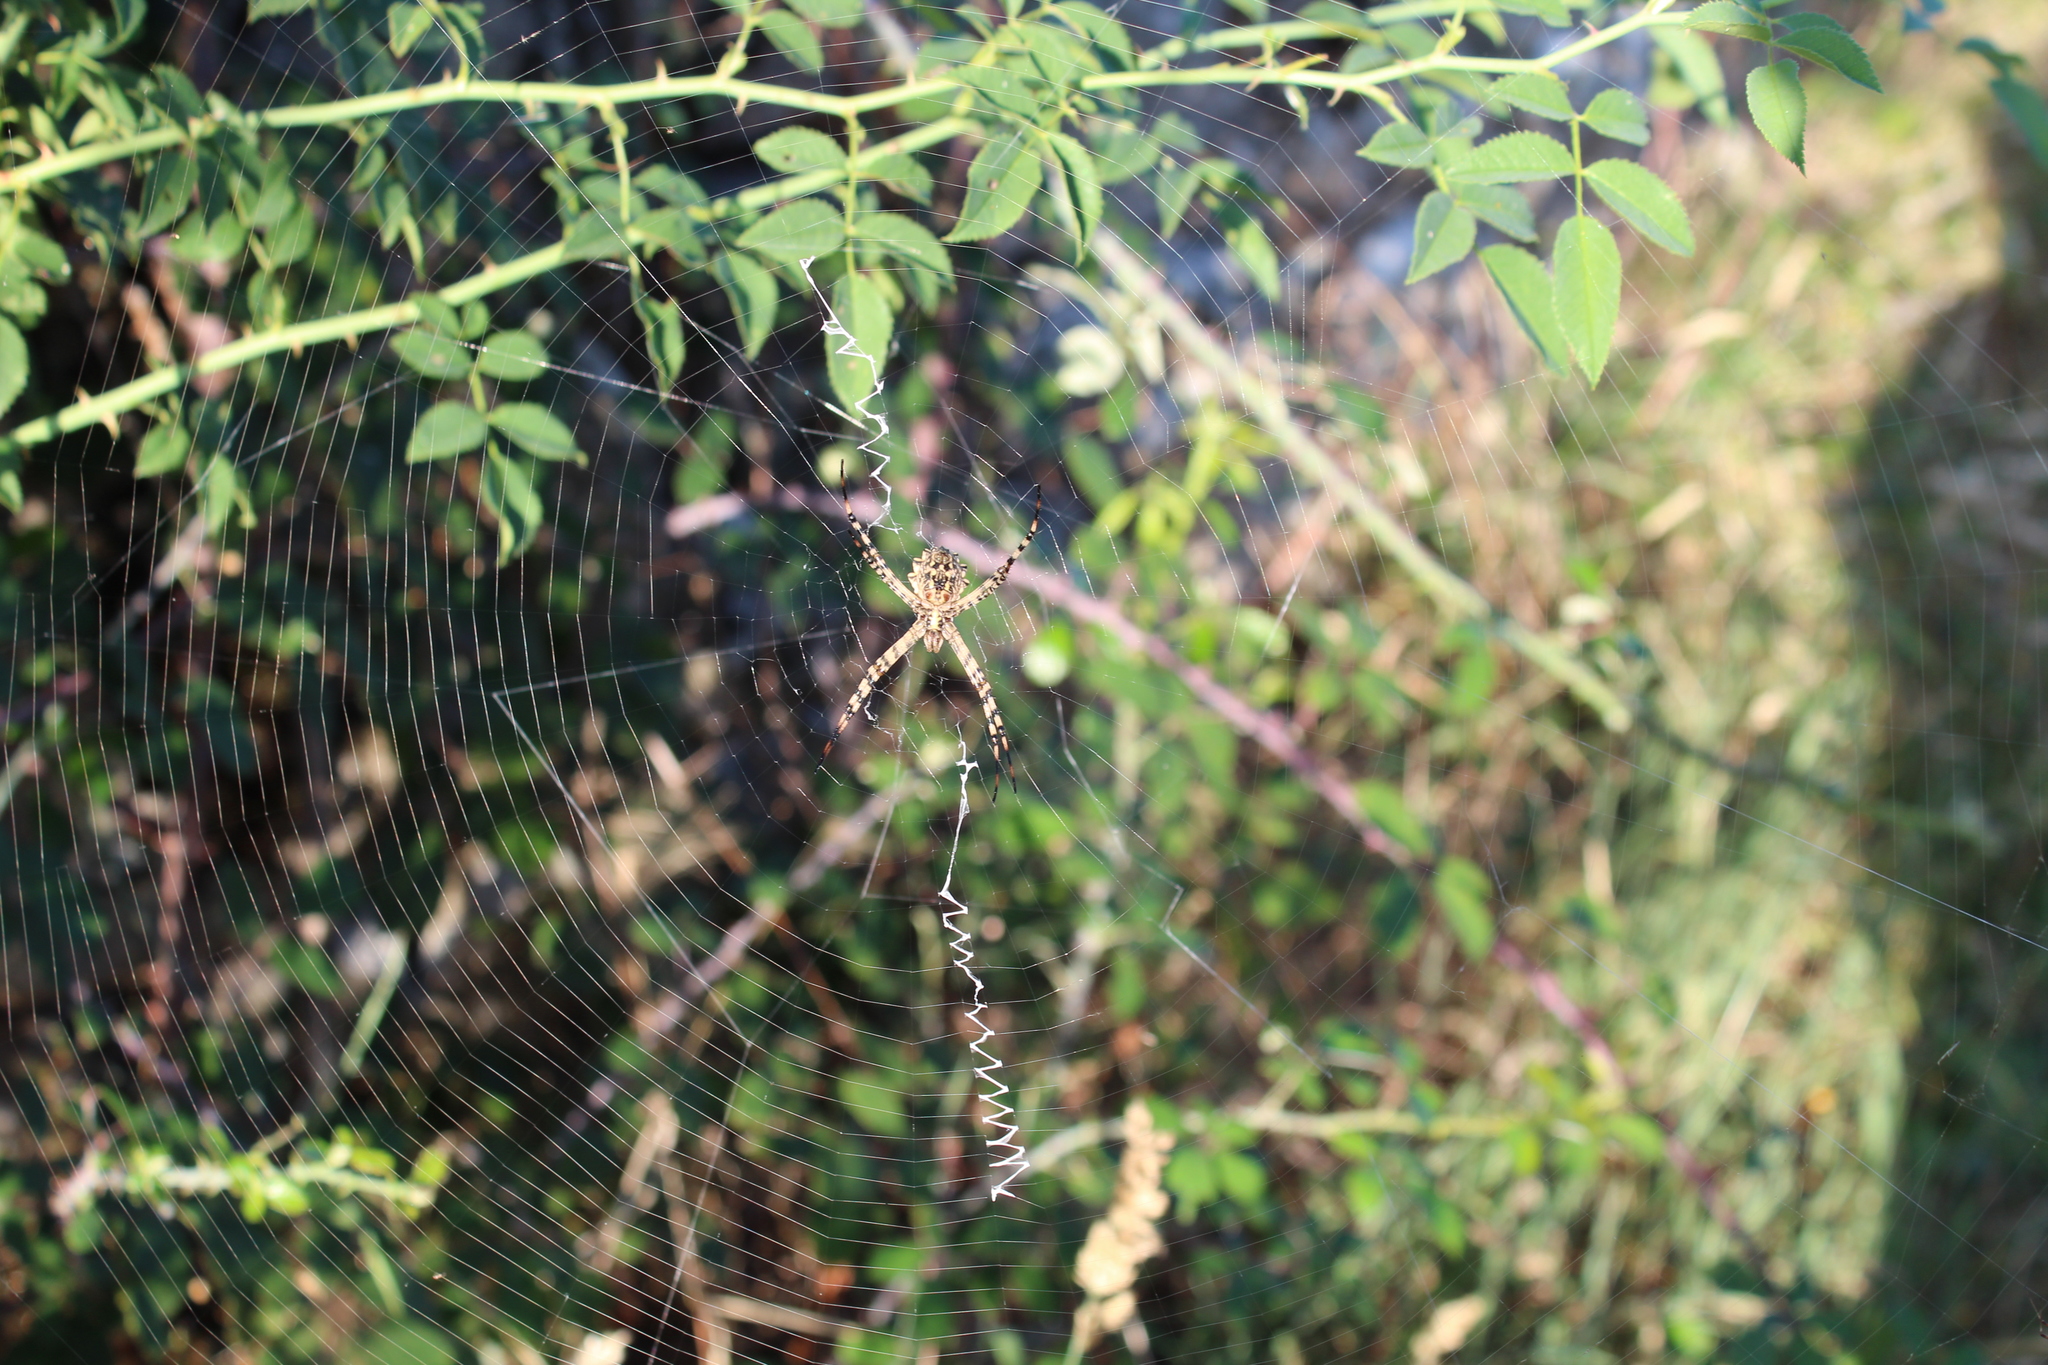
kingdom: Animalia
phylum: Arthropoda
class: Arachnida
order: Araneae
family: Araneidae
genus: Argiope
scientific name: Argiope lobata
